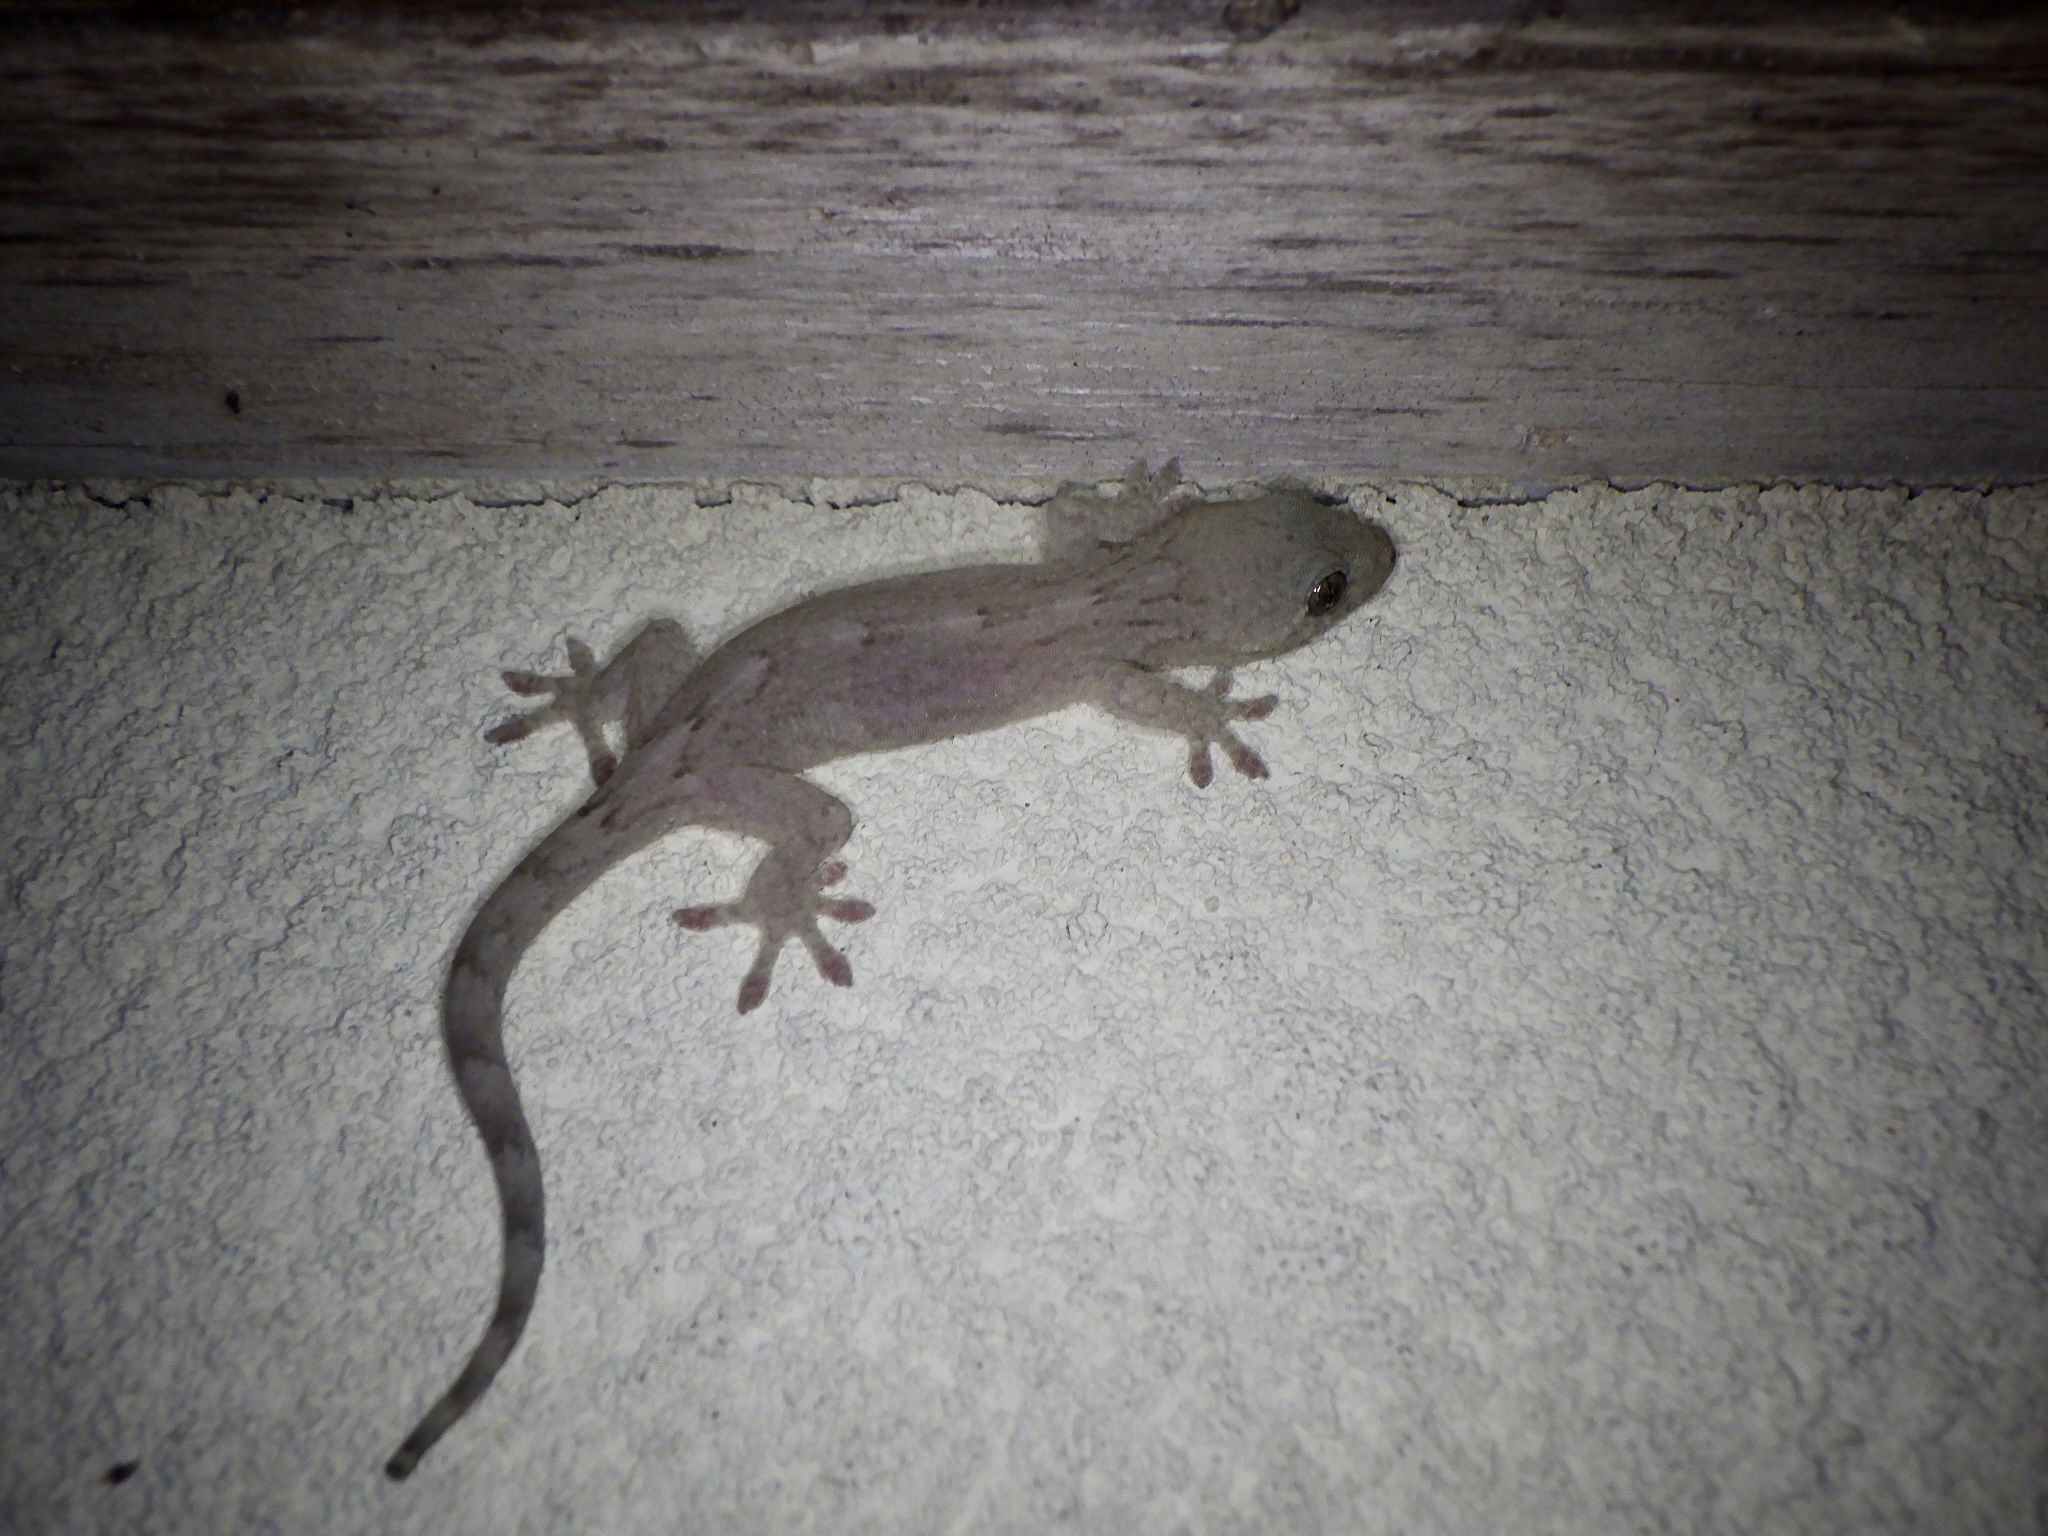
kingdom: Animalia
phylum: Chordata
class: Squamata
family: Gekkonidae
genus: Gekko
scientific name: Gekko japonicus
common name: Schlegel's japanese gecko
